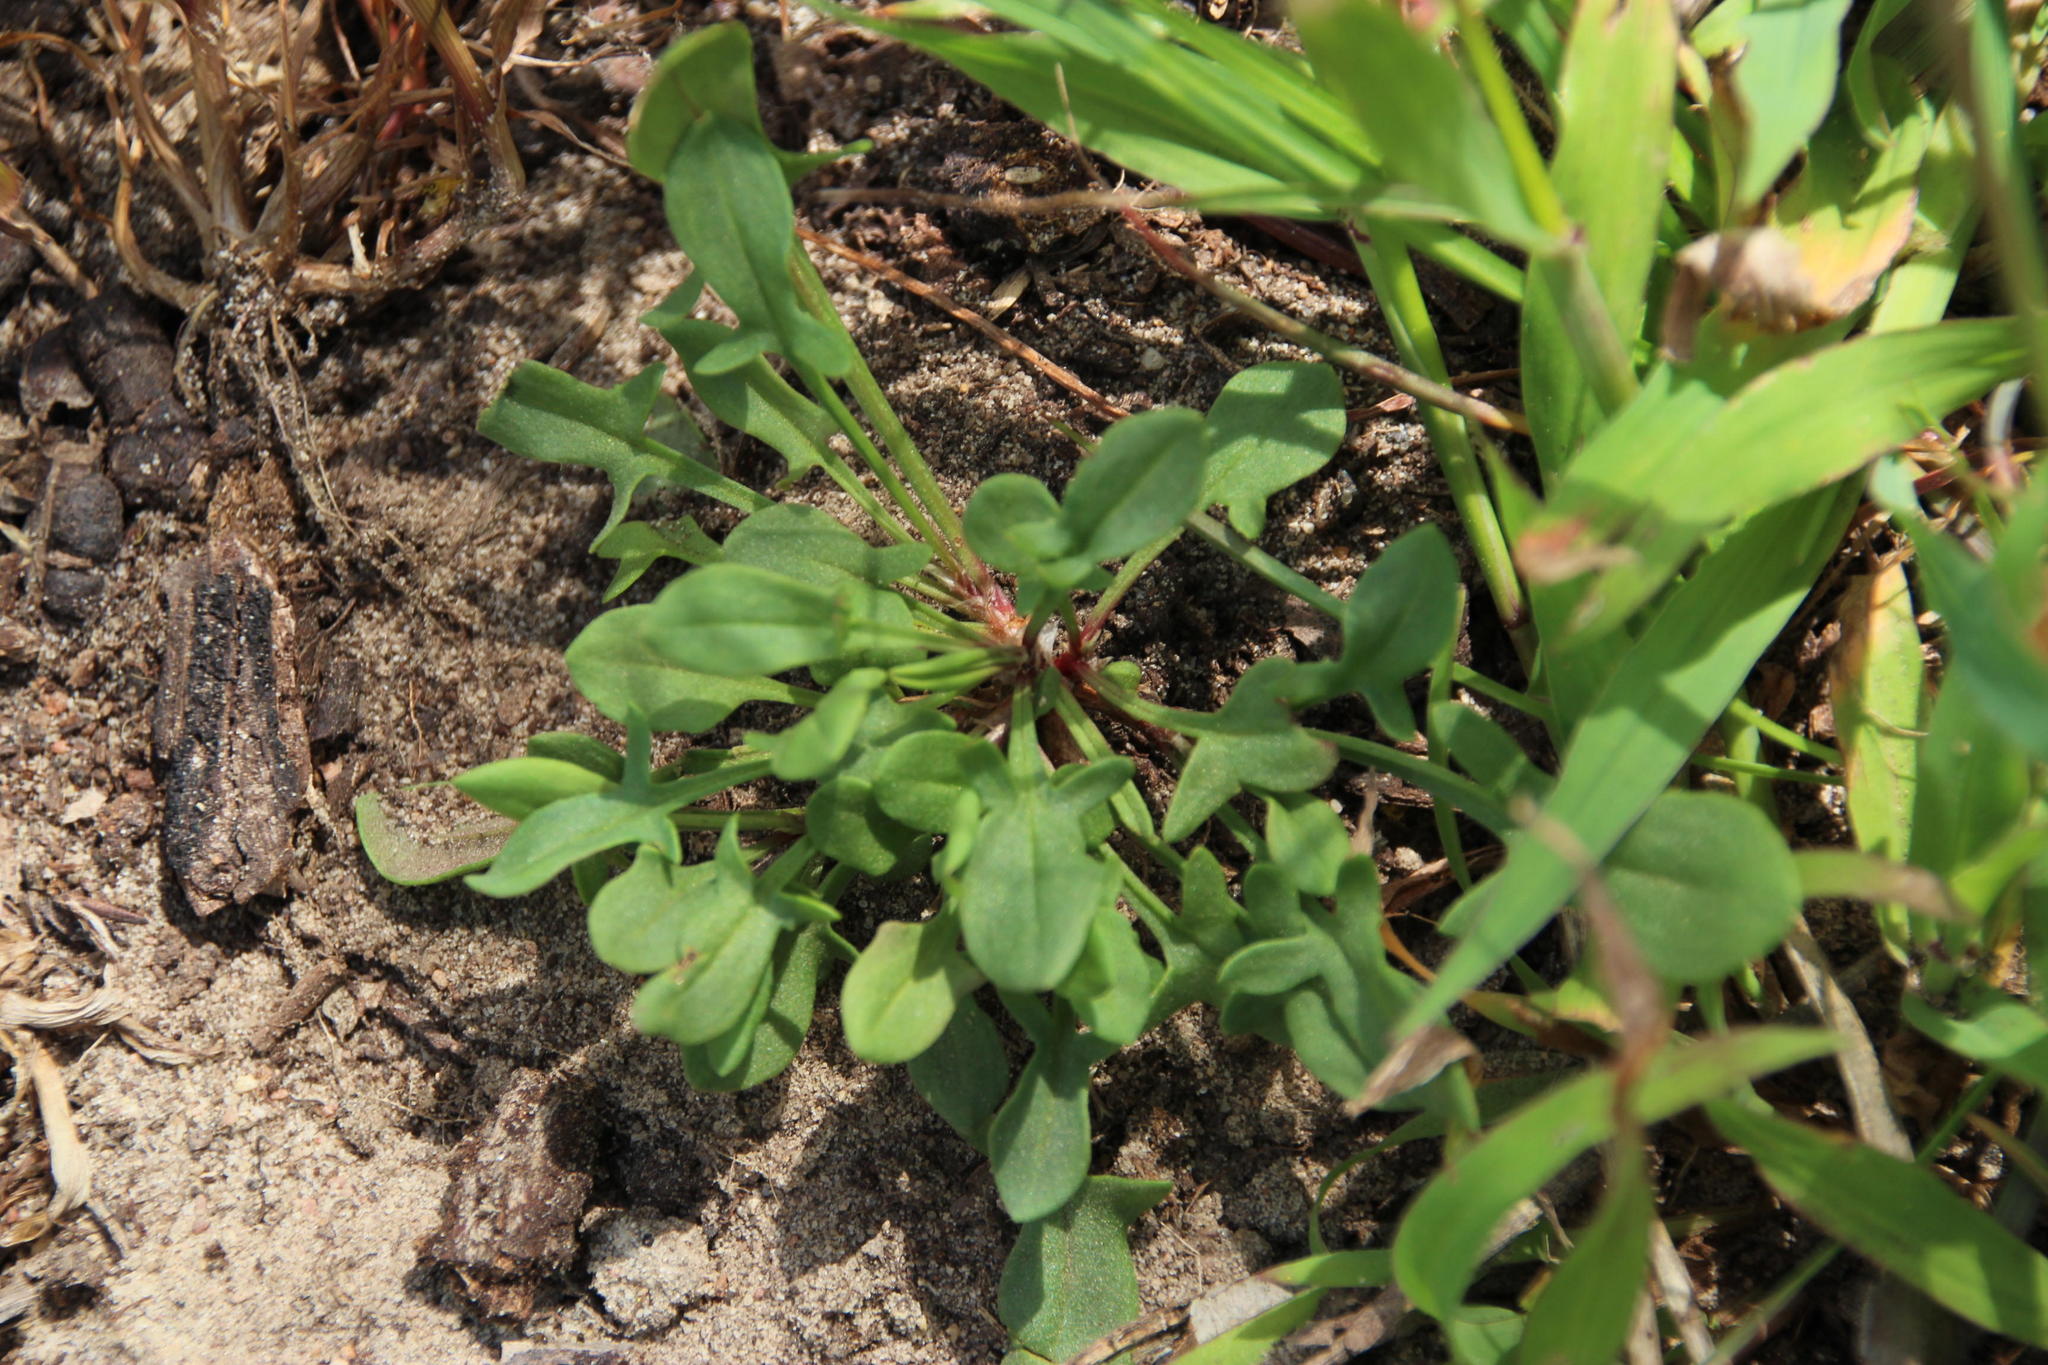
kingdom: Plantae
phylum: Tracheophyta
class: Magnoliopsida
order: Caryophyllales
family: Polygonaceae
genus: Rumex
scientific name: Rumex acetosella
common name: Common sheep sorrel
